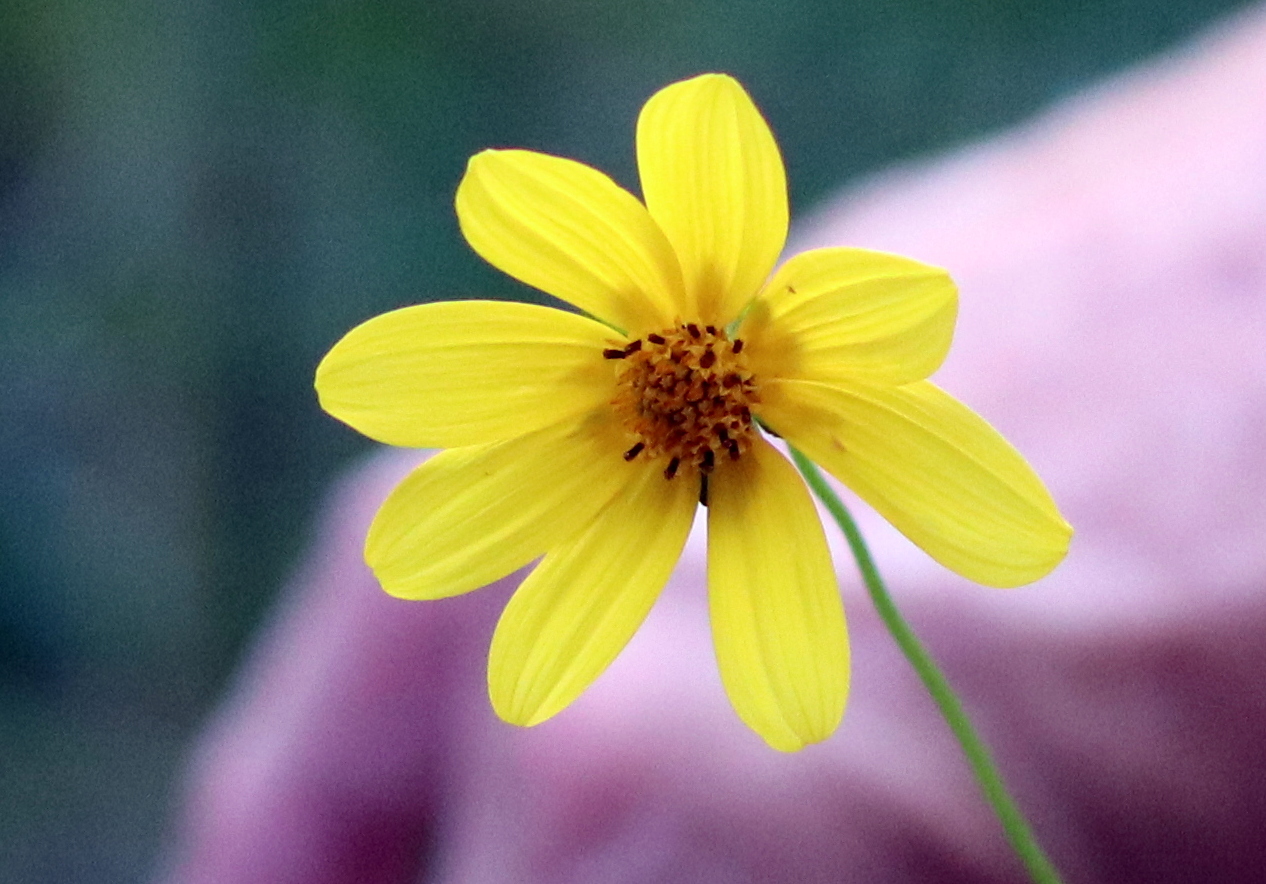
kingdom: Plantae
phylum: Tracheophyta
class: Magnoliopsida
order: Asterales
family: Asteraceae
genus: Bidens
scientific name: Bidens mitis
